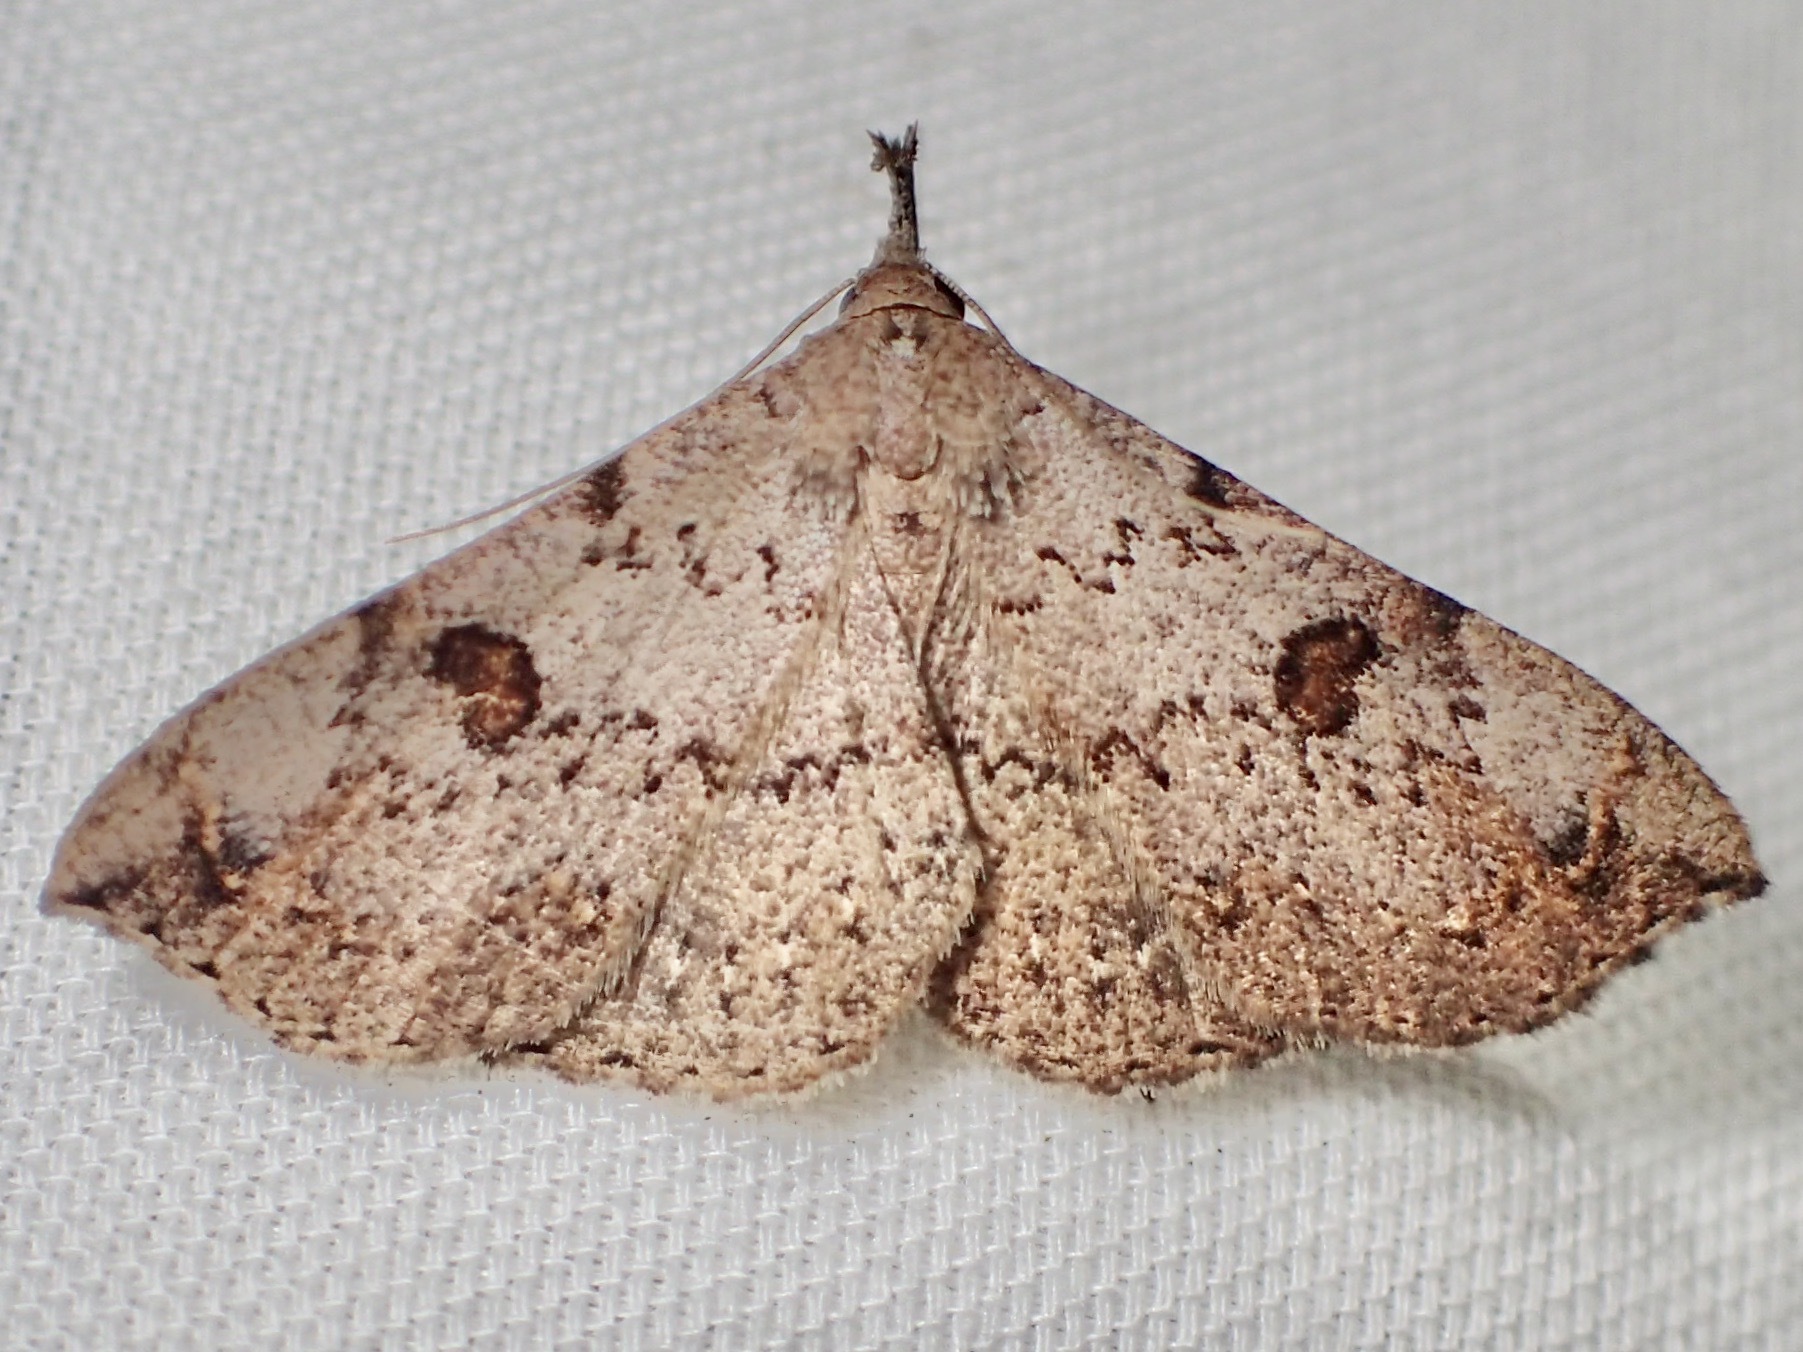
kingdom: Animalia
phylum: Arthropoda
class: Insecta
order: Lepidoptera
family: Erebidae
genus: Squamipalpis
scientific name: Squamipalpis pantoea
